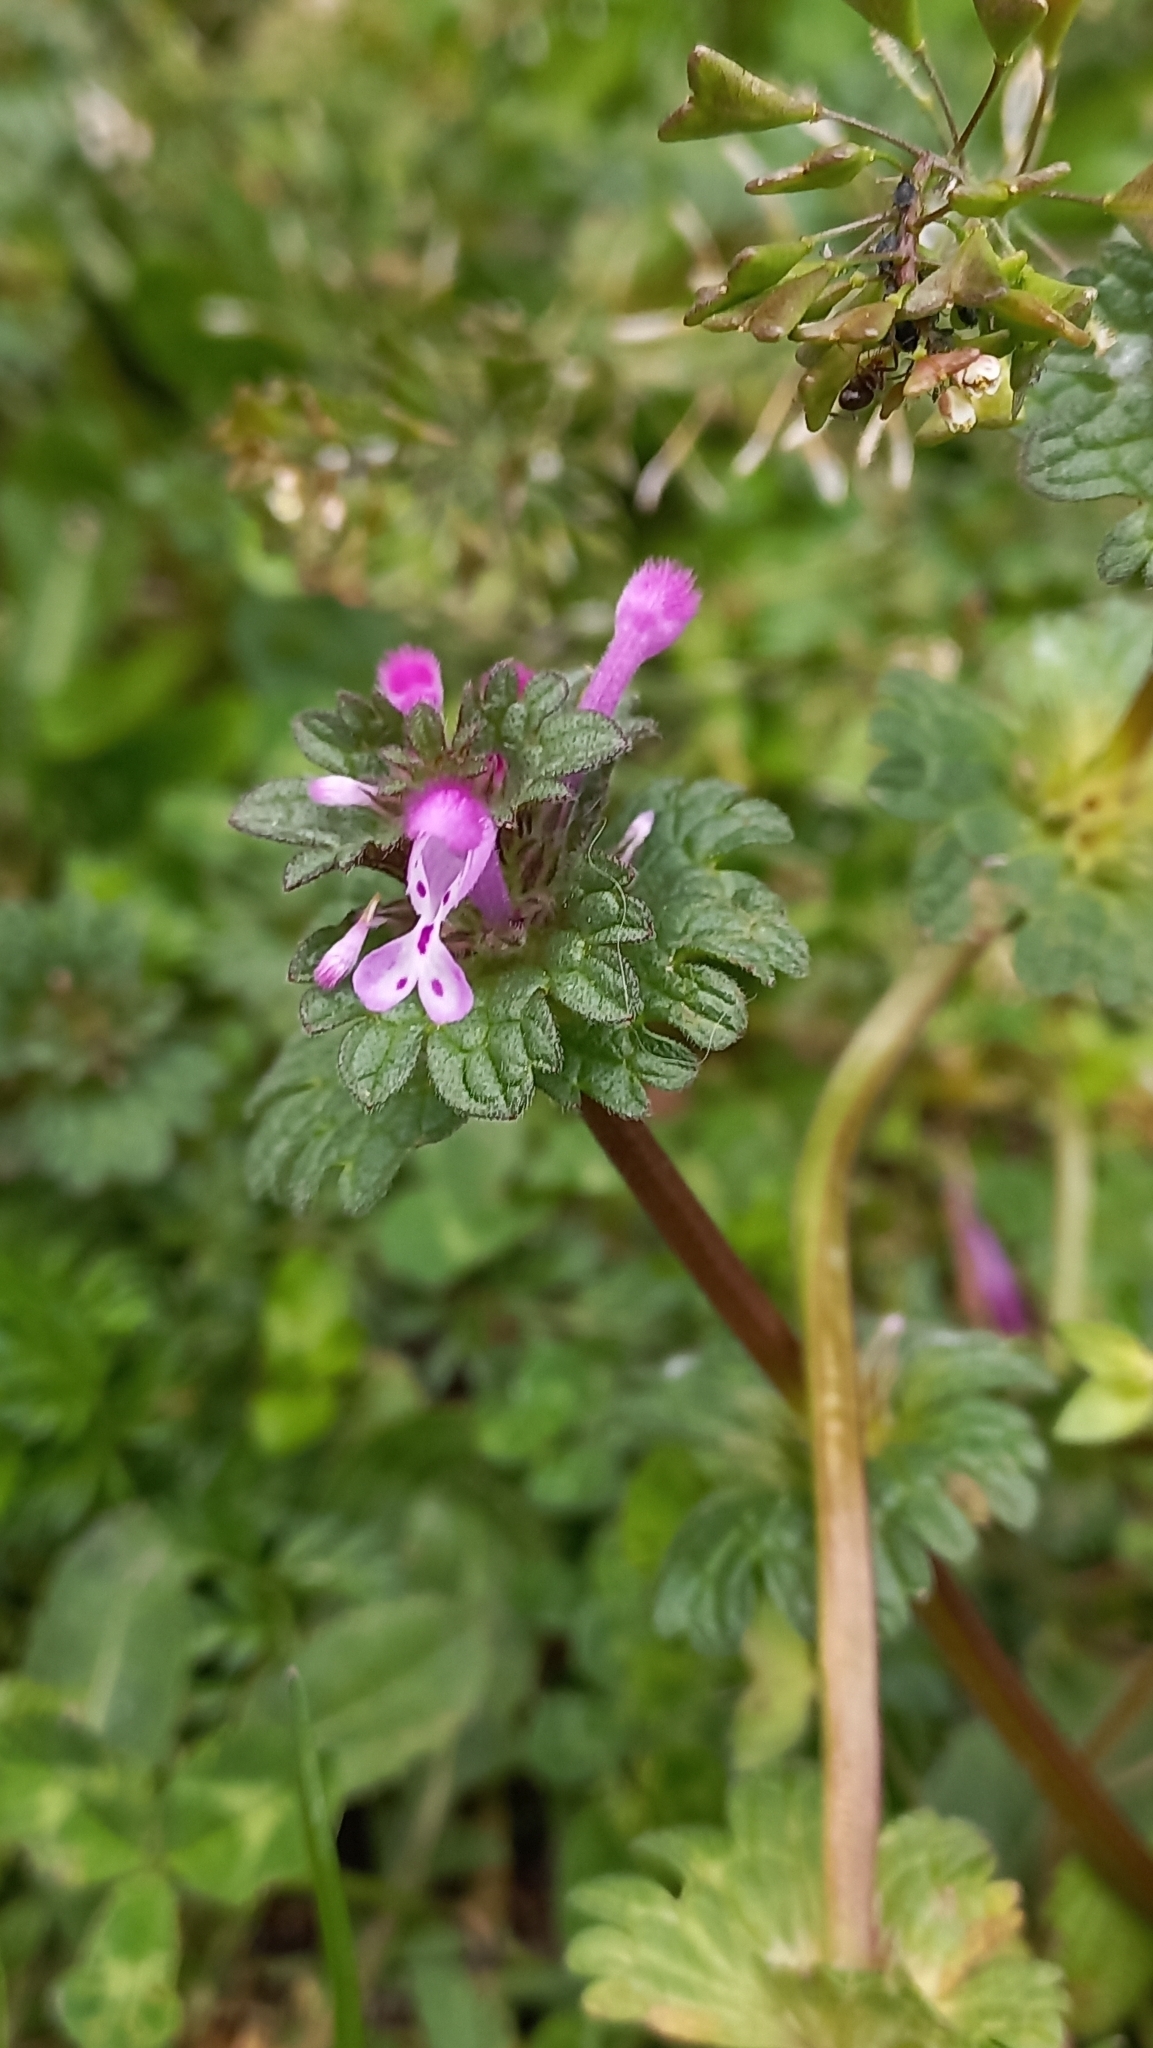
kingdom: Plantae
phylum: Tracheophyta
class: Magnoliopsida
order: Lamiales
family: Lamiaceae
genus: Lamium
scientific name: Lamium amplexicaule
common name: Henbit dead-nettle
